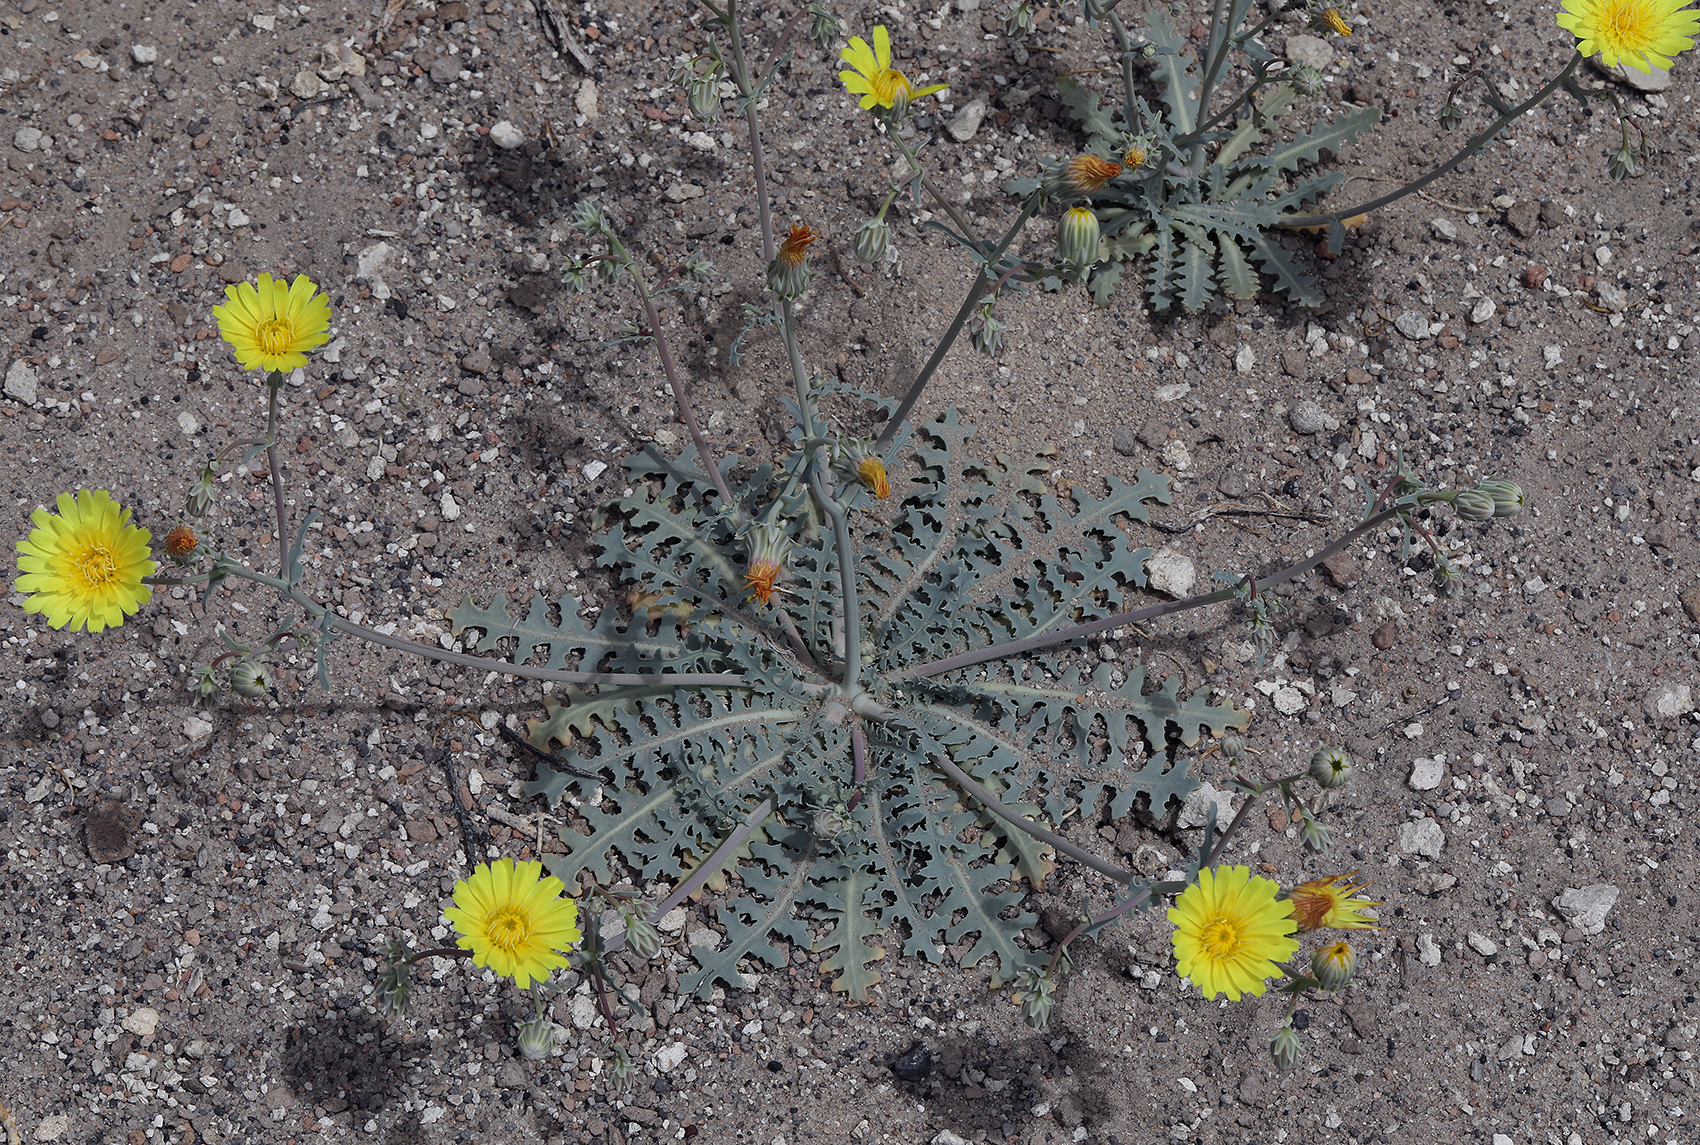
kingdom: Plantae
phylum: Tracheophyta
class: Magnoliopsida
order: Asterales
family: Asteraceae
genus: Malacothrix
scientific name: Malacothrix sonchoides
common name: Sow-thistle desert-dandelion
